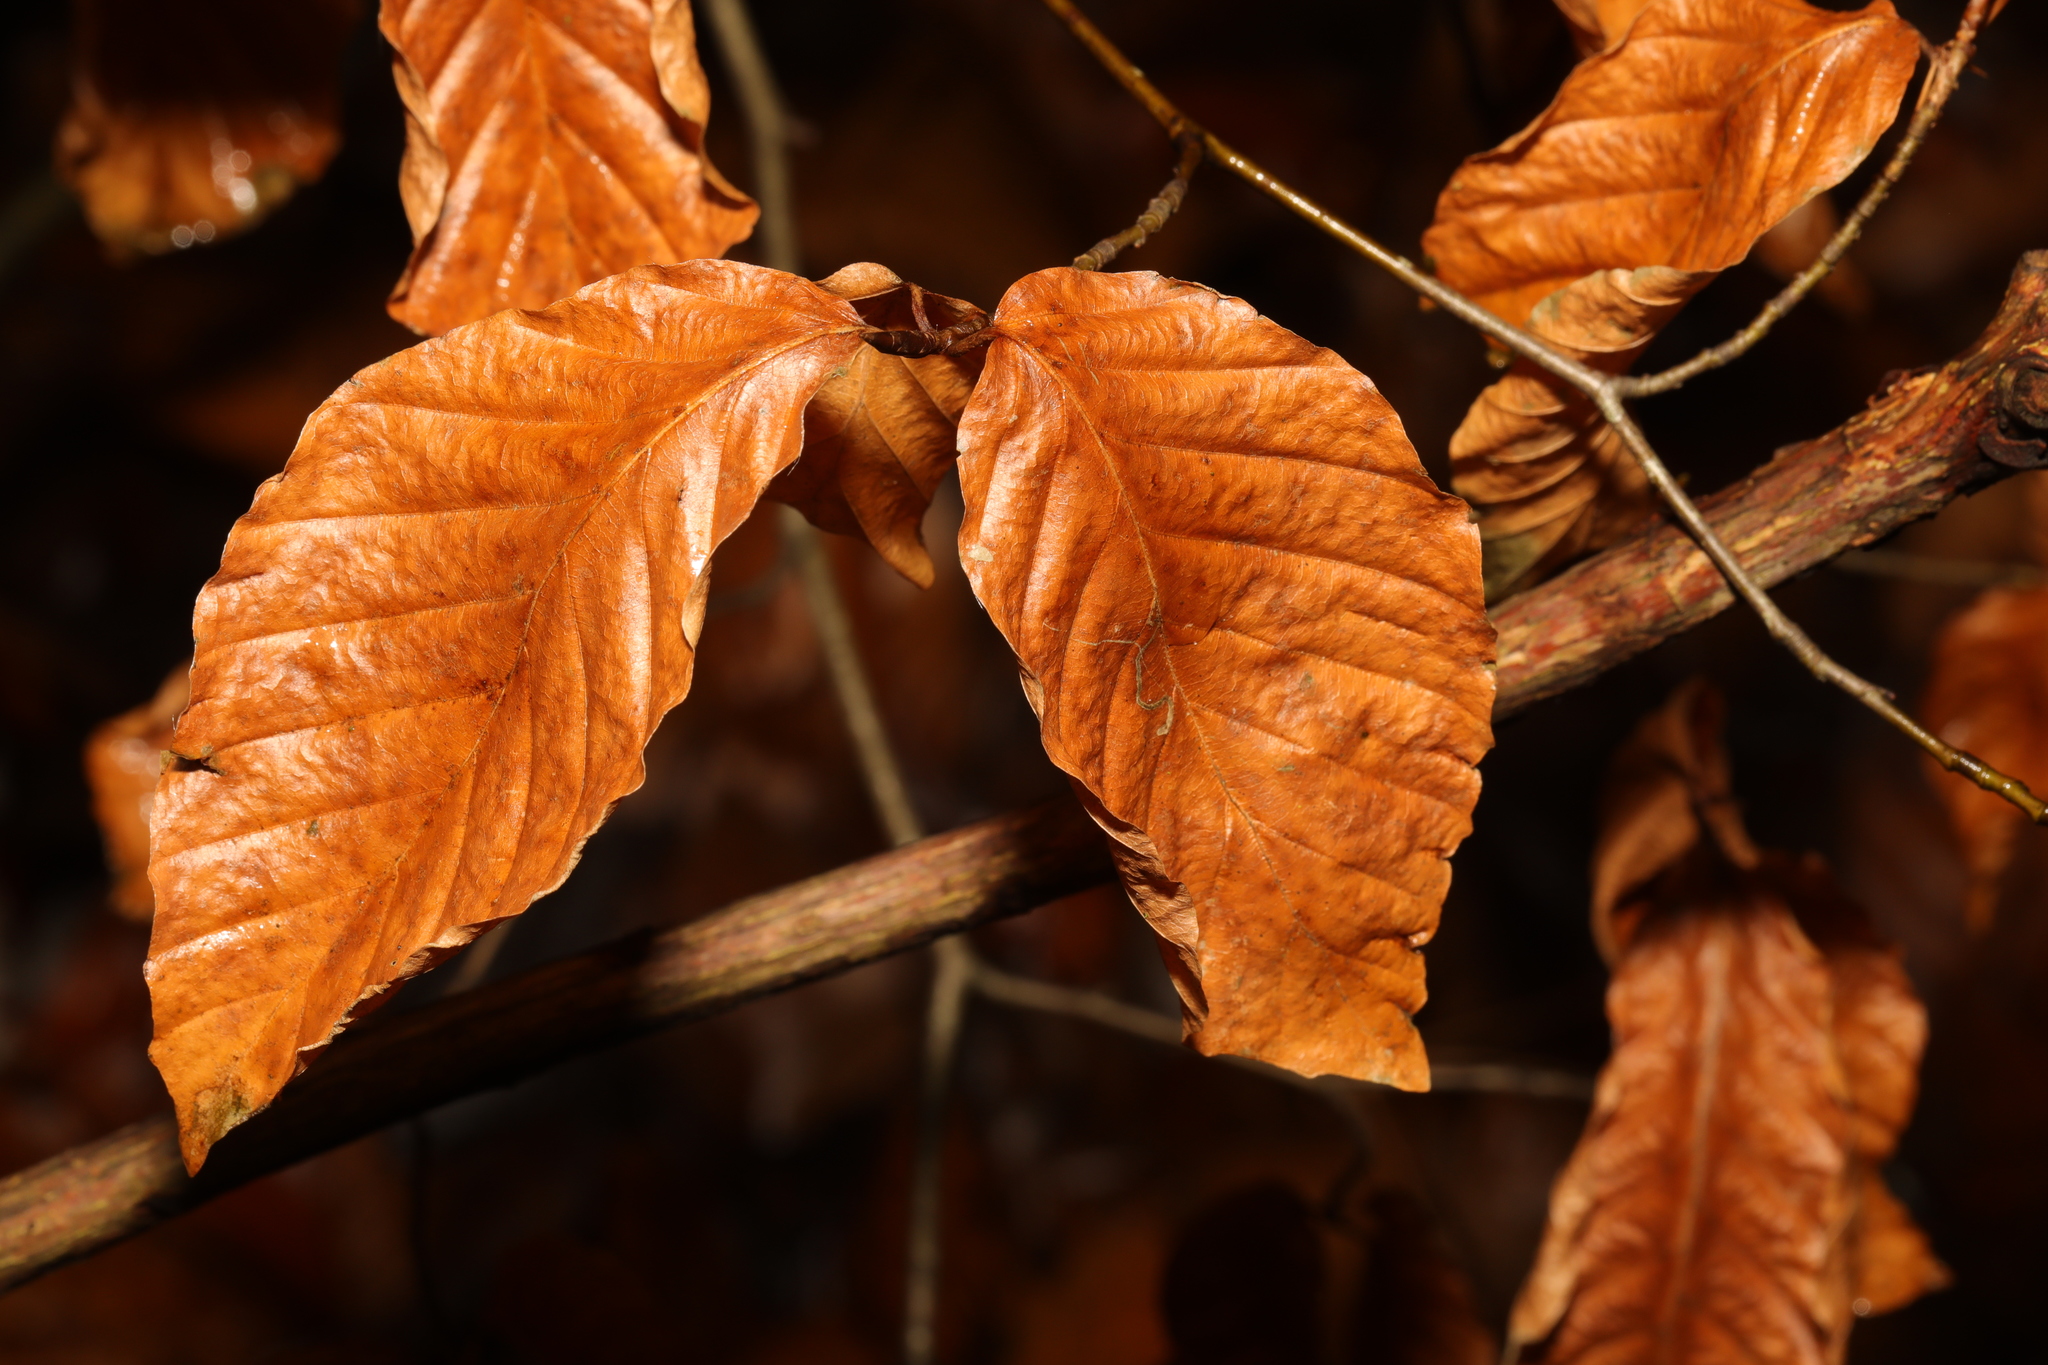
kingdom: Plantae
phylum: Tracheophyta
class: Magnoliopsida
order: Fagales
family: Fagaceae
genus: Fagus
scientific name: Fagus sylvatica
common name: Beech
